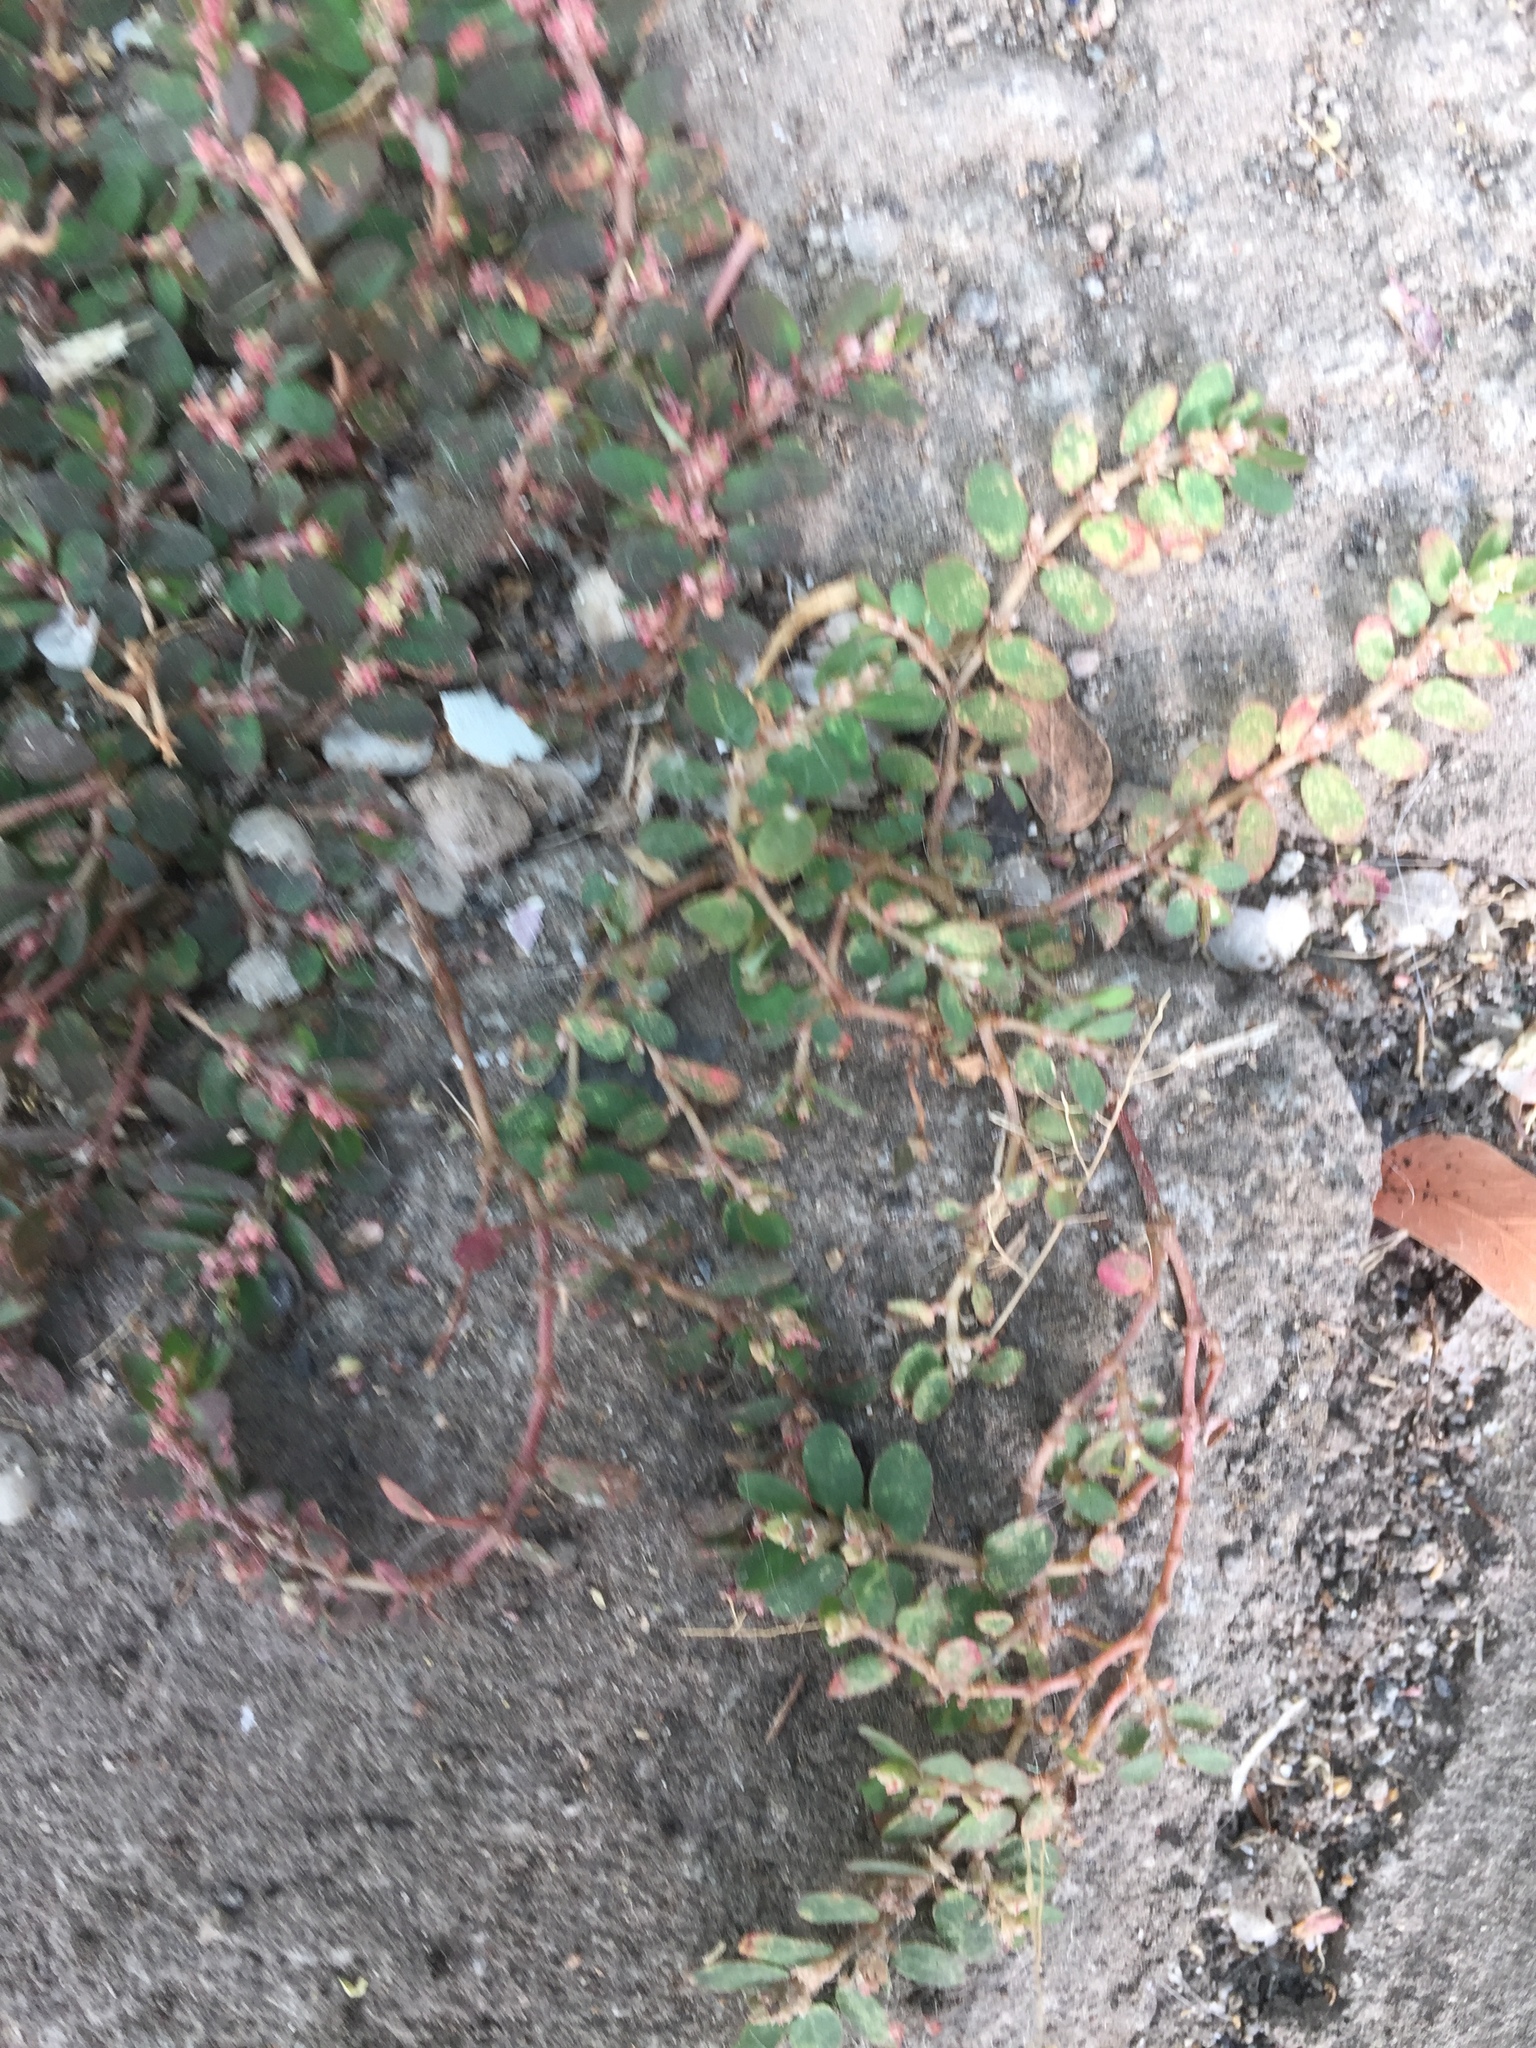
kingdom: Plantae
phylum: Tracheophyta
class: Magnoliopsida
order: Malpighiales
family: Euphorbiaceae
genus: Euphorbia
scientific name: Euphorbia thymifolia
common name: Gulf sandmat
